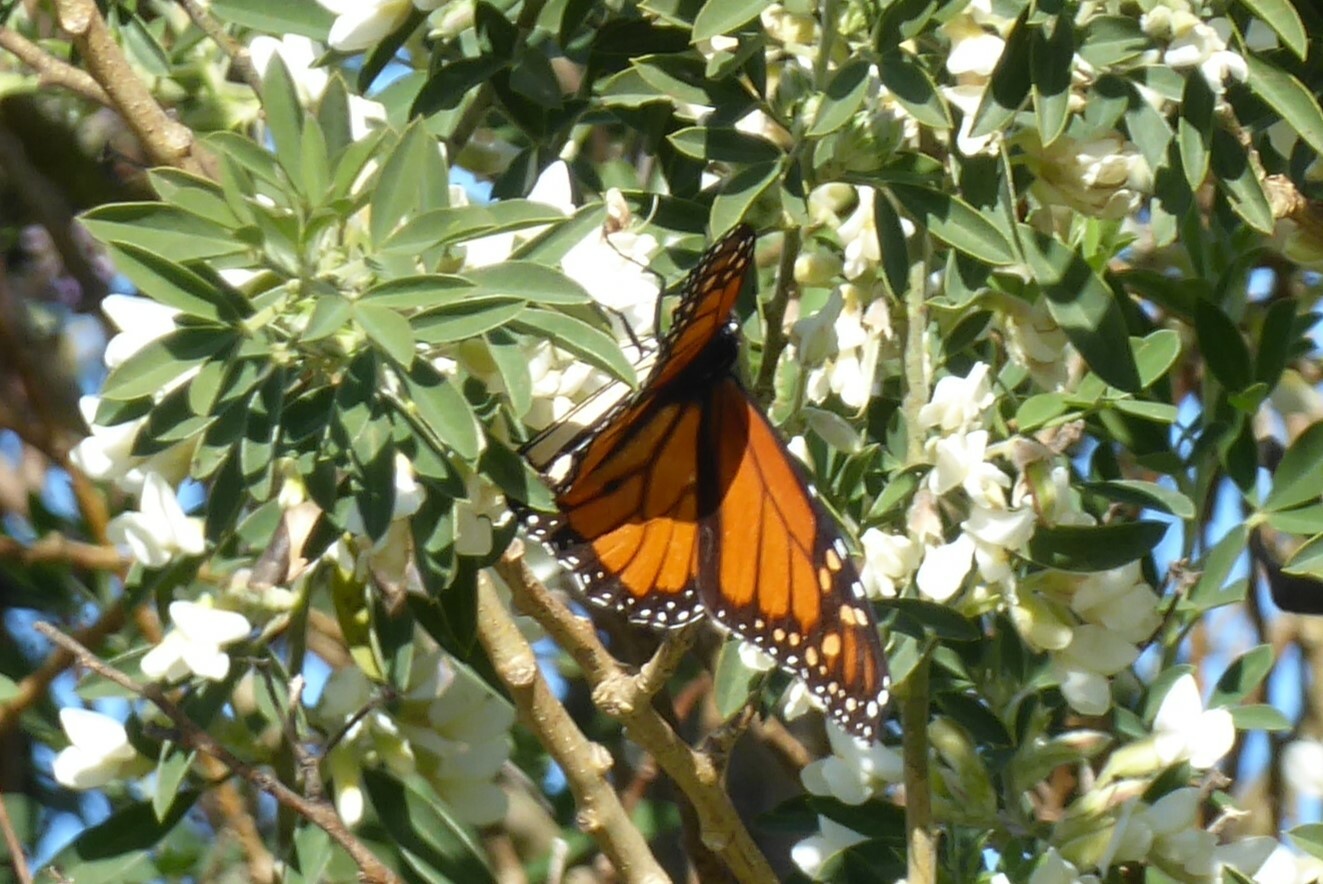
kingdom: Animalia
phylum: Arthropoda
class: Insecta
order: Lepidoptera
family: Nymphalidae
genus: Danaus
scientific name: Danaus plexippus
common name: Monarch
